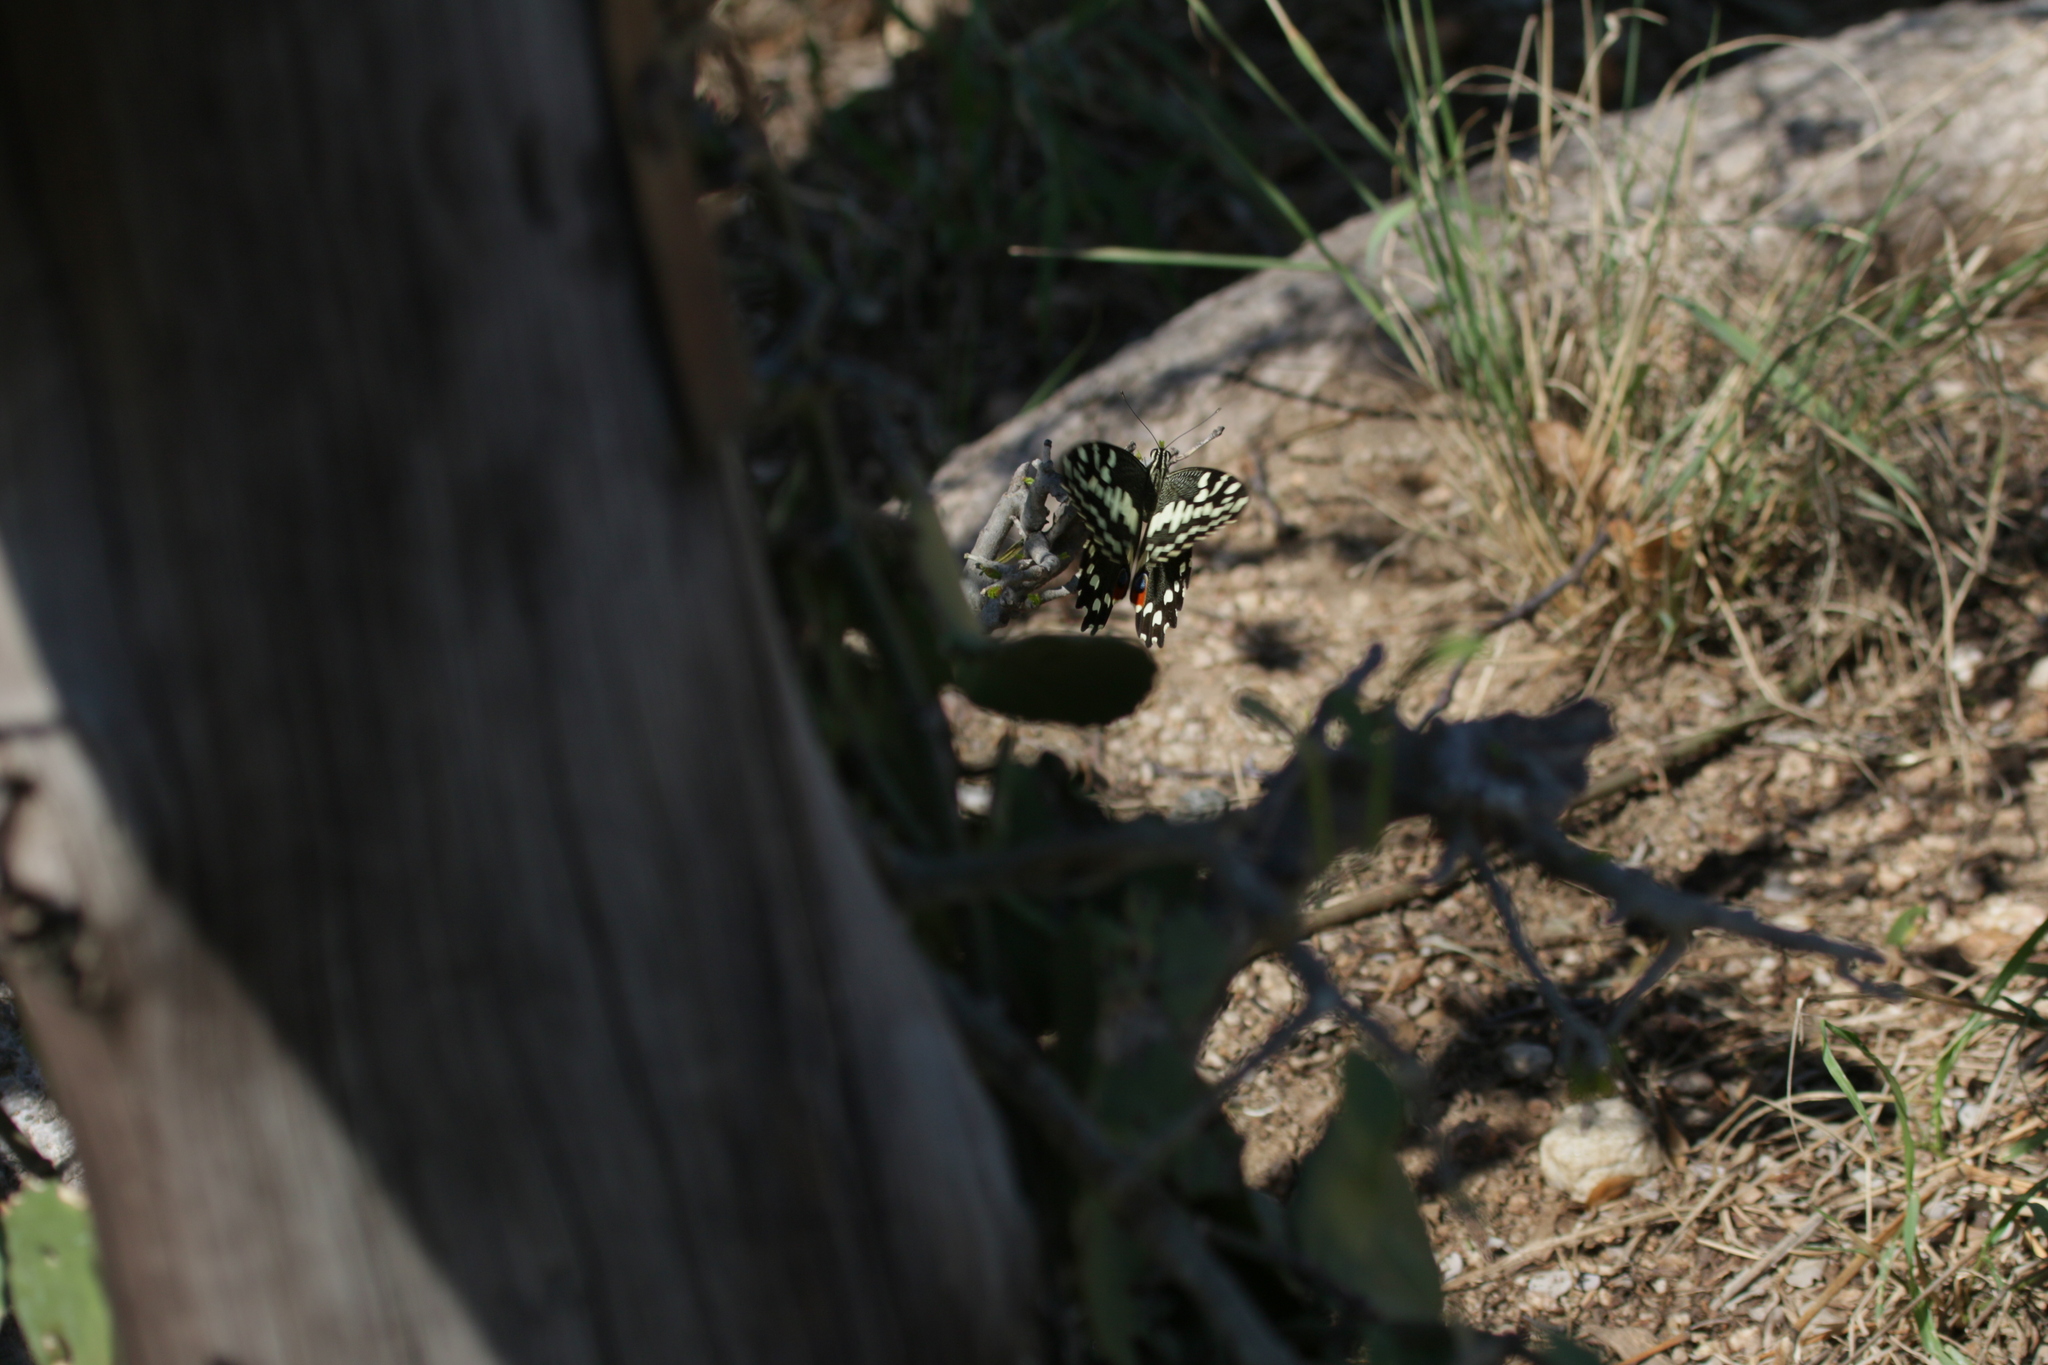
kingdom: Animalia
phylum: Arthropoda
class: Insecta
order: Lepidoptera
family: Papilionidae
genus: Papilio
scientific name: Papilio demodocus
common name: Christmas butterfly
